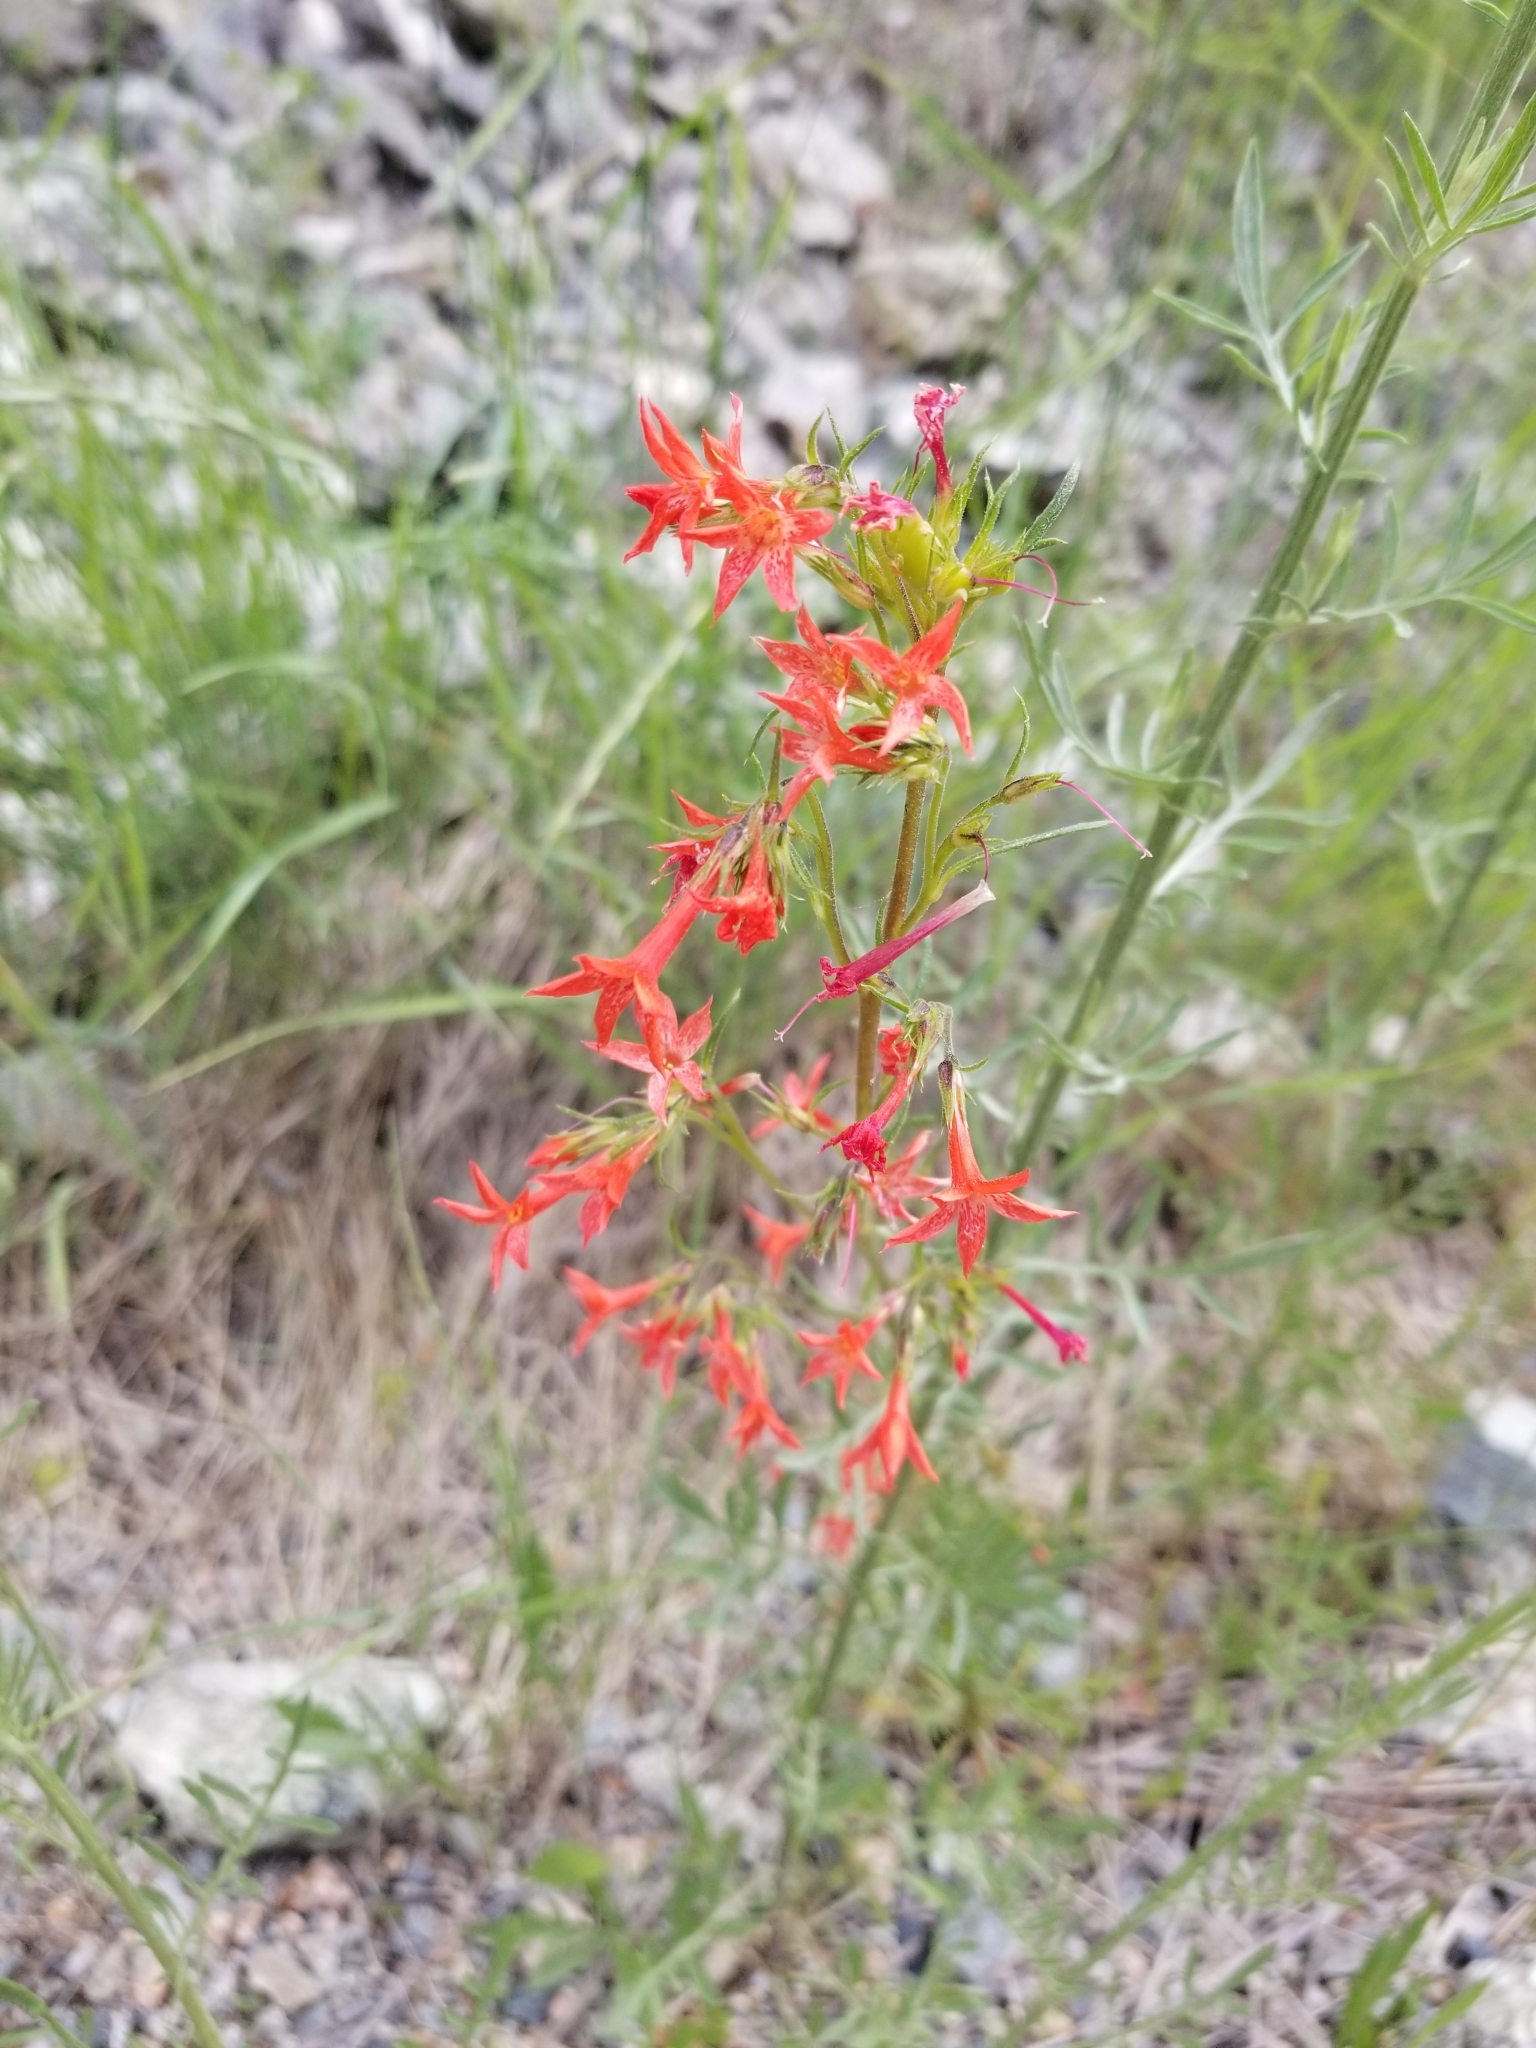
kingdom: Plantae
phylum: Tracheophyta
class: Magnoliopsida
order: Ericales
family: Polemoniaceae
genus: Ipomopsis
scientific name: Ipomopsis aggregata
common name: Scarlet gilia
